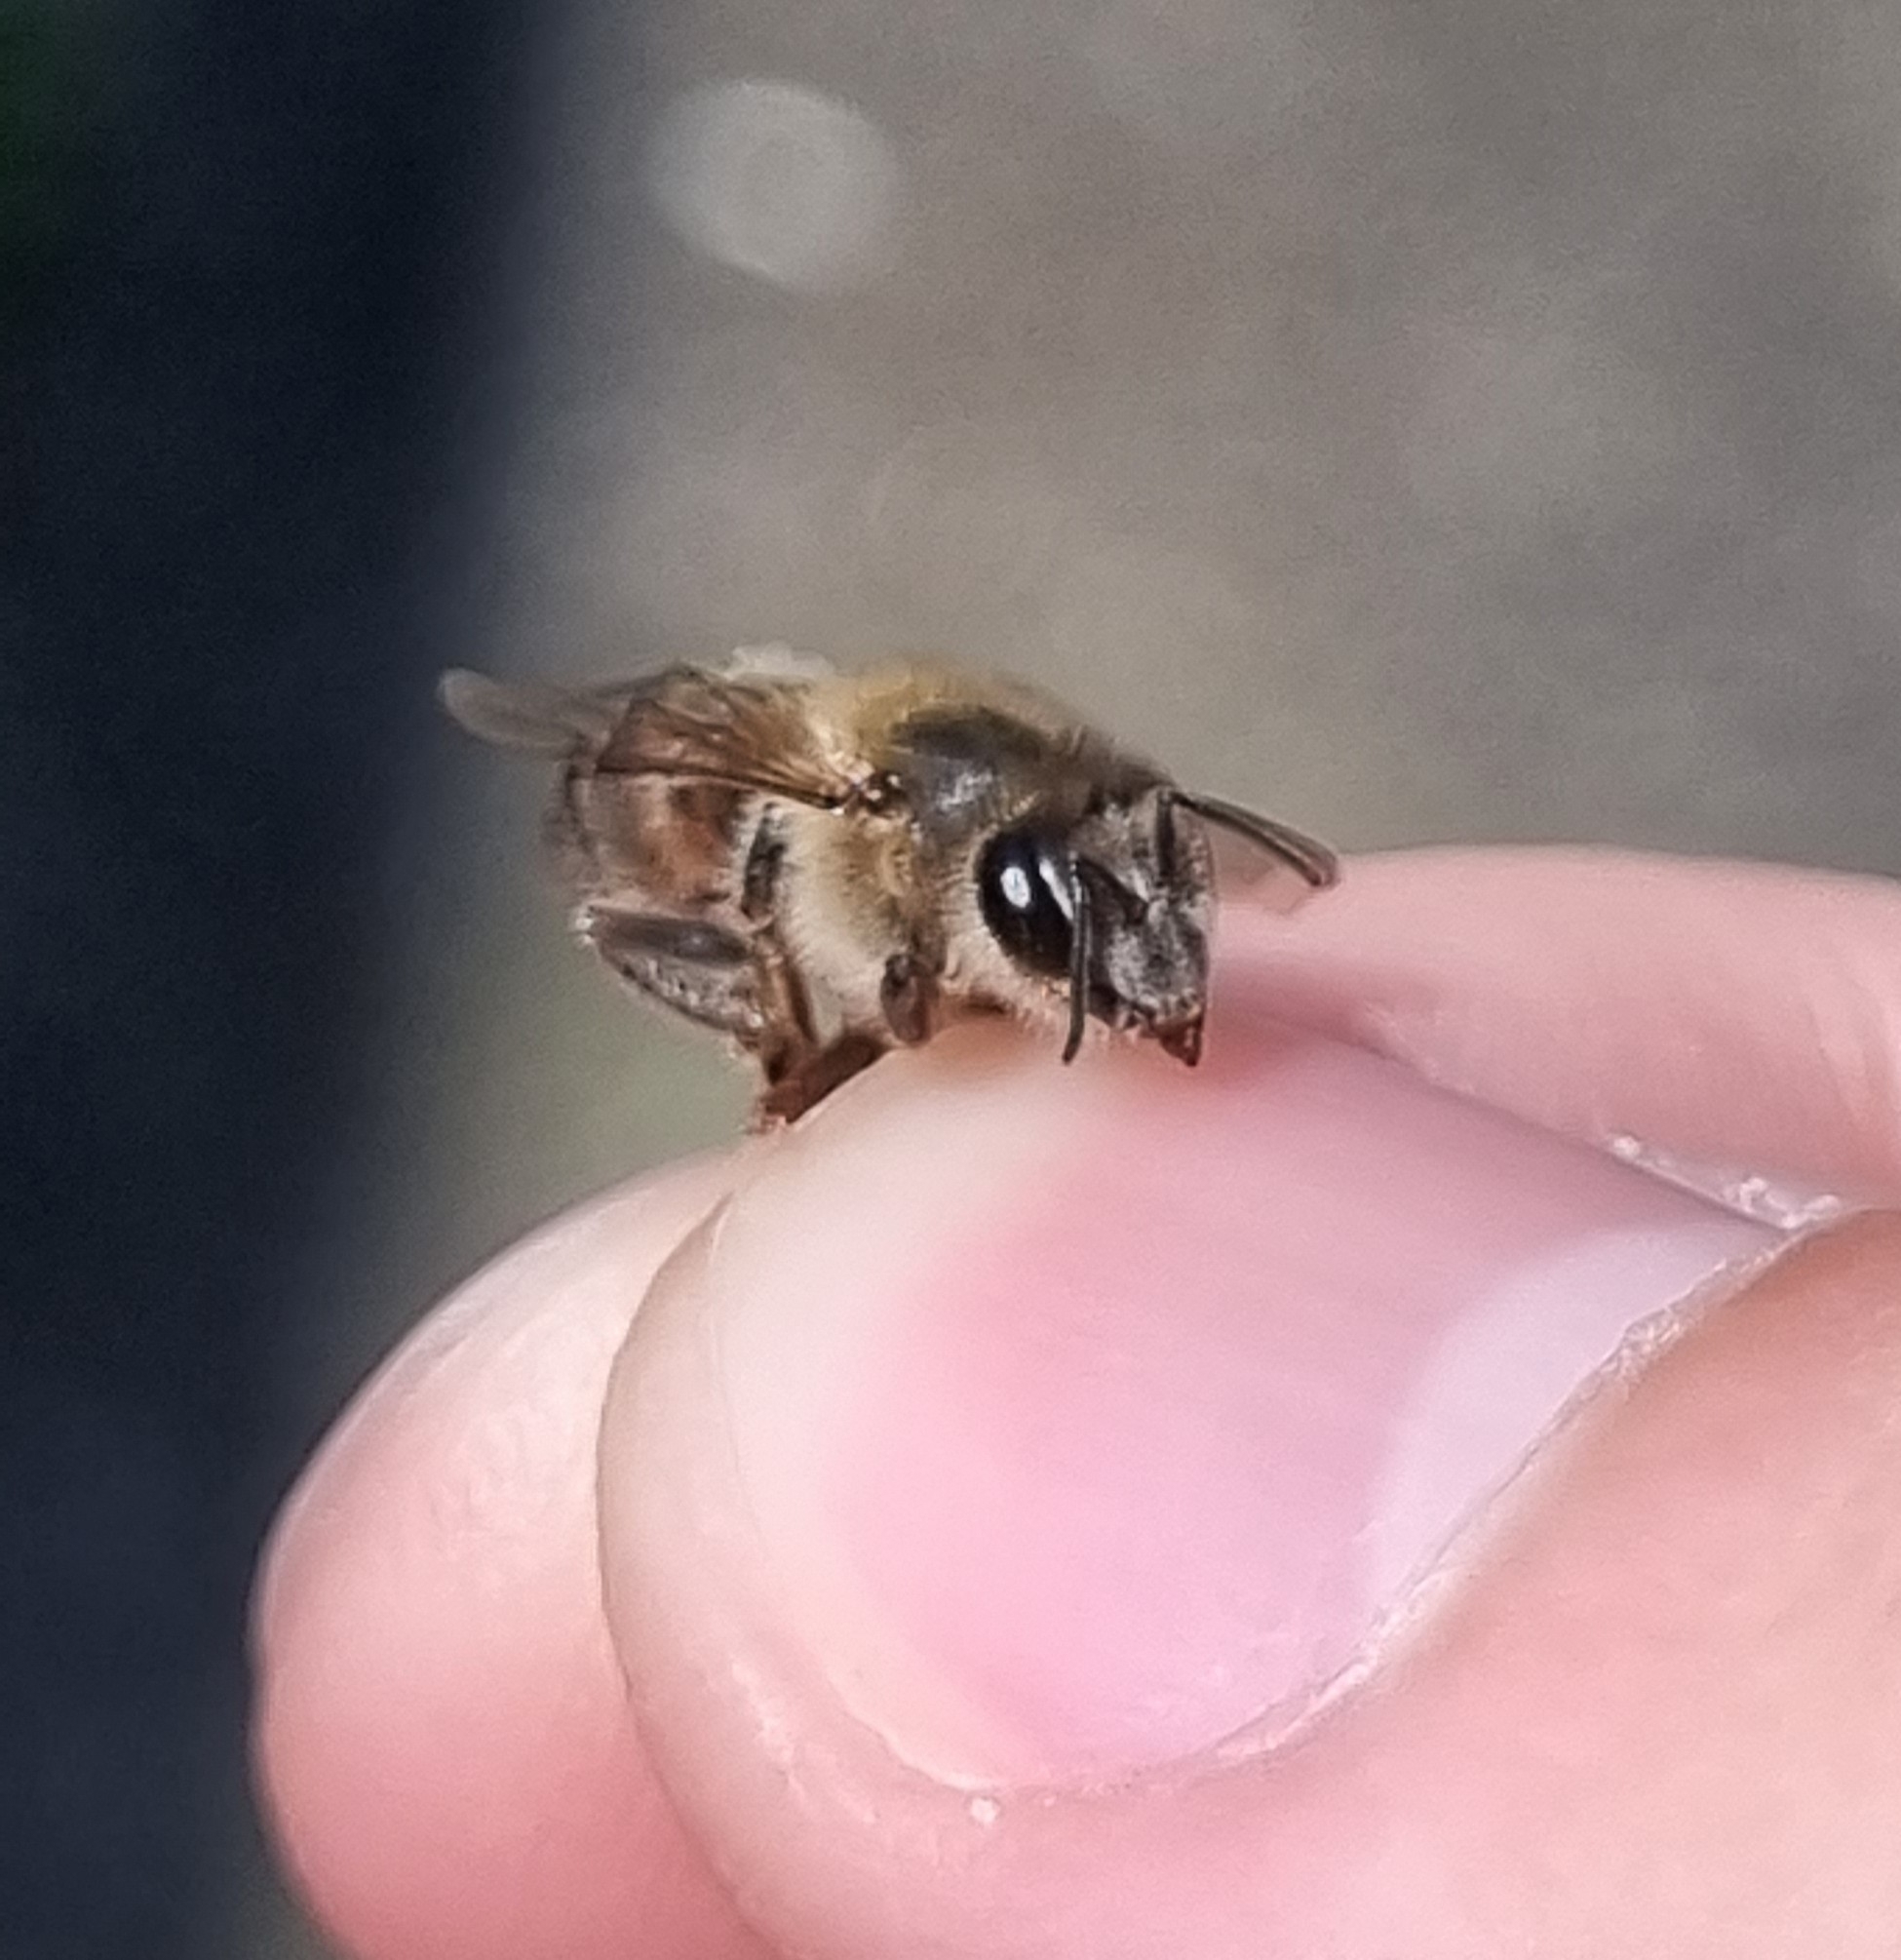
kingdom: Animalia
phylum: Arthropoda
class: Insecta
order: Hymenoptera
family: Apidae
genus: Apis
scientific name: Apis mellifera
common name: Honey bee
